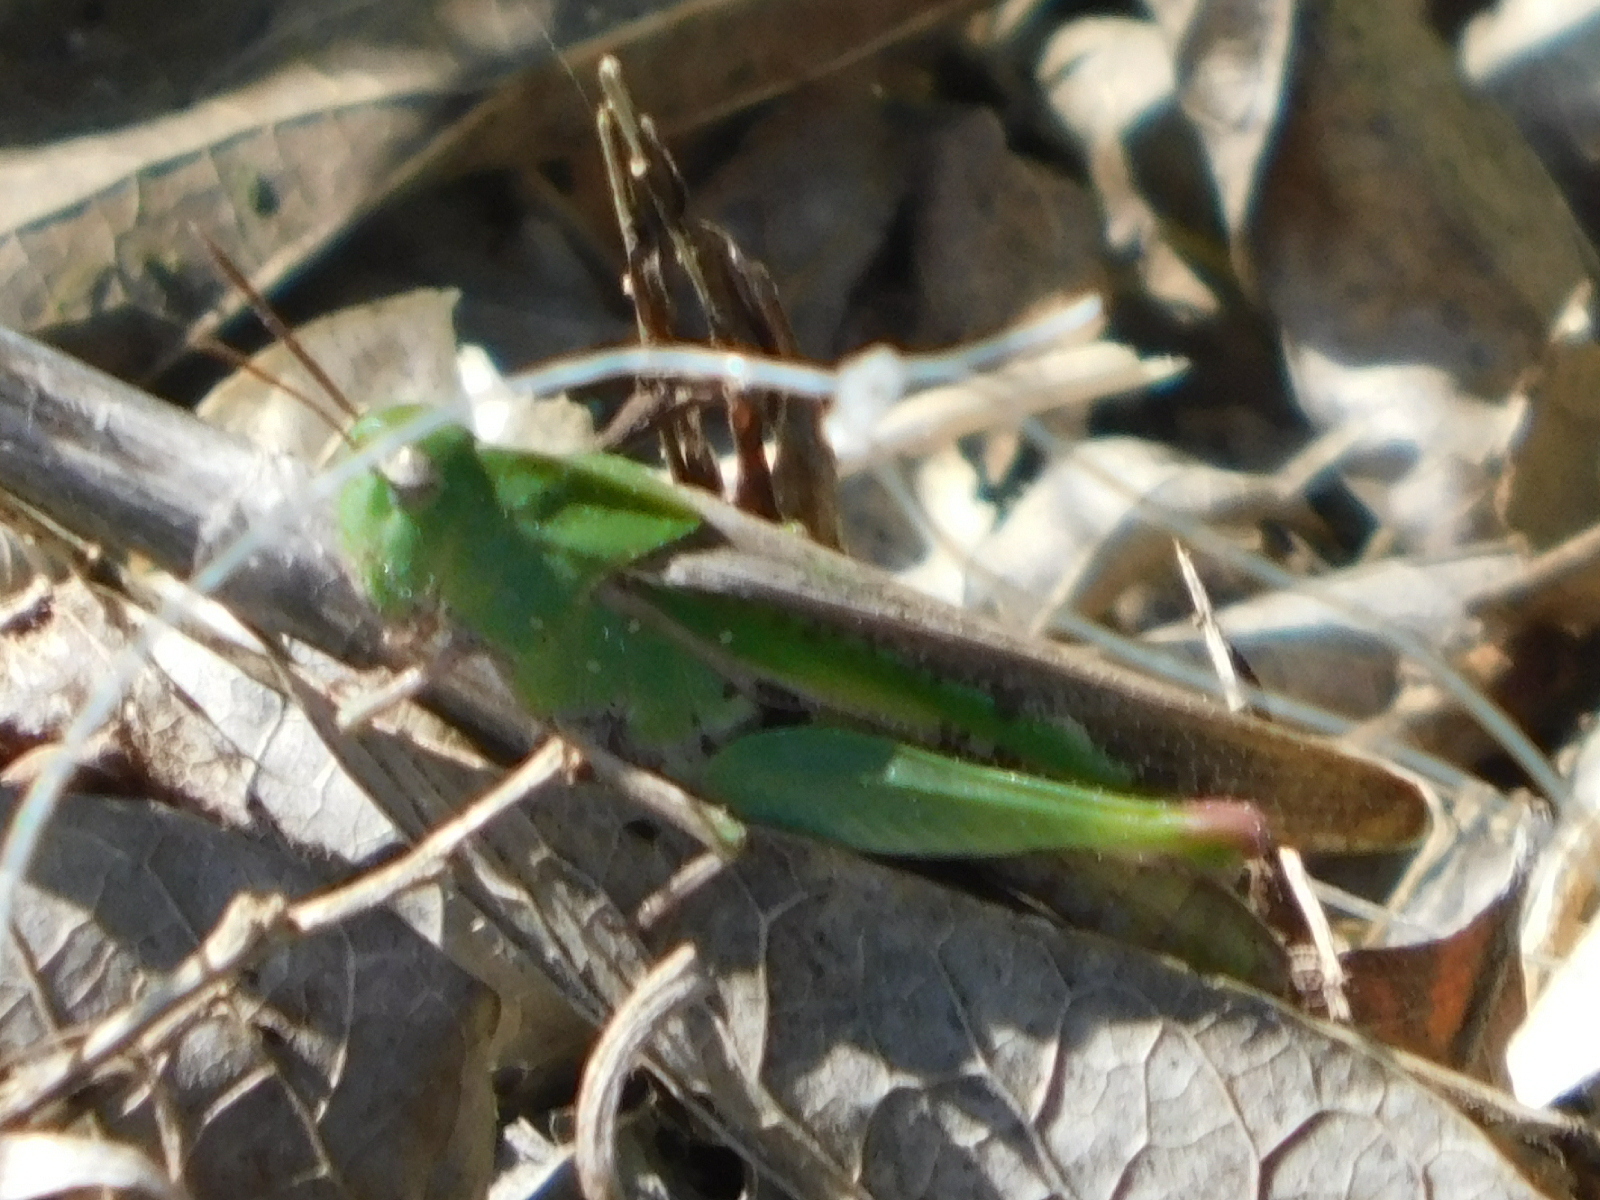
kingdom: Animalia
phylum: Arthropoda
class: Insecta
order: Orthoptera
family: Acrididae
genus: Chortophaga
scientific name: Chortophaga viridifasciata
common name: Green-striped grasshopper
